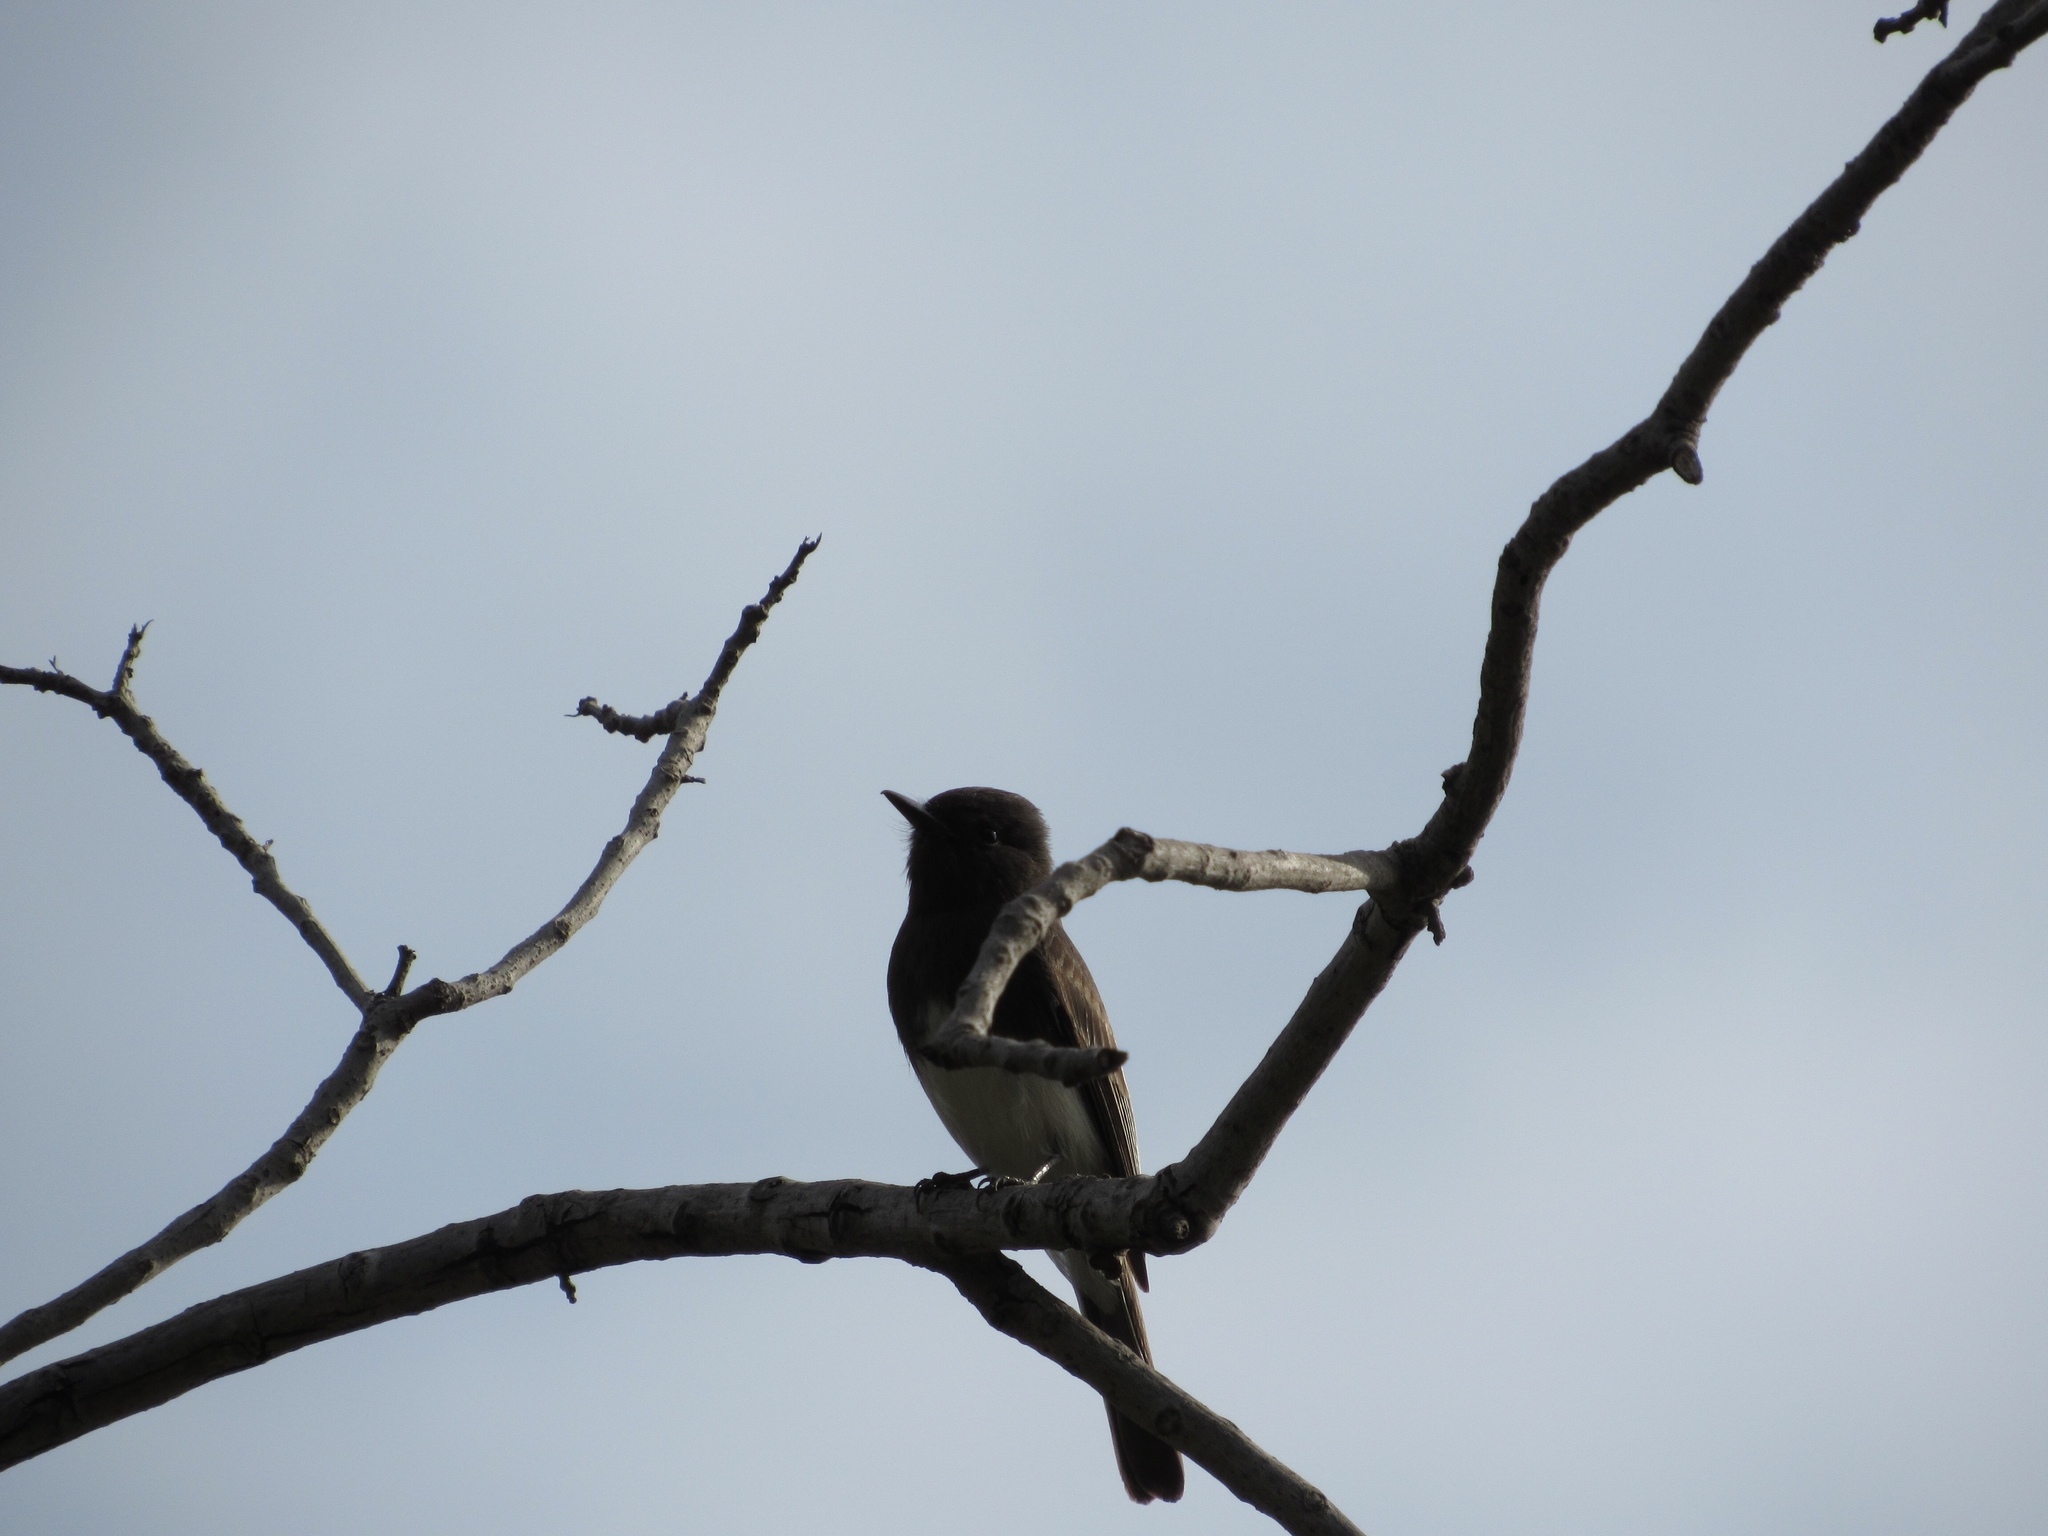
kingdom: Animalia
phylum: Chordata
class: Aves
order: Passeriformes
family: Tyrannidae
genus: Sayornis
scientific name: Sayornis nigricans
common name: Black phoebe
